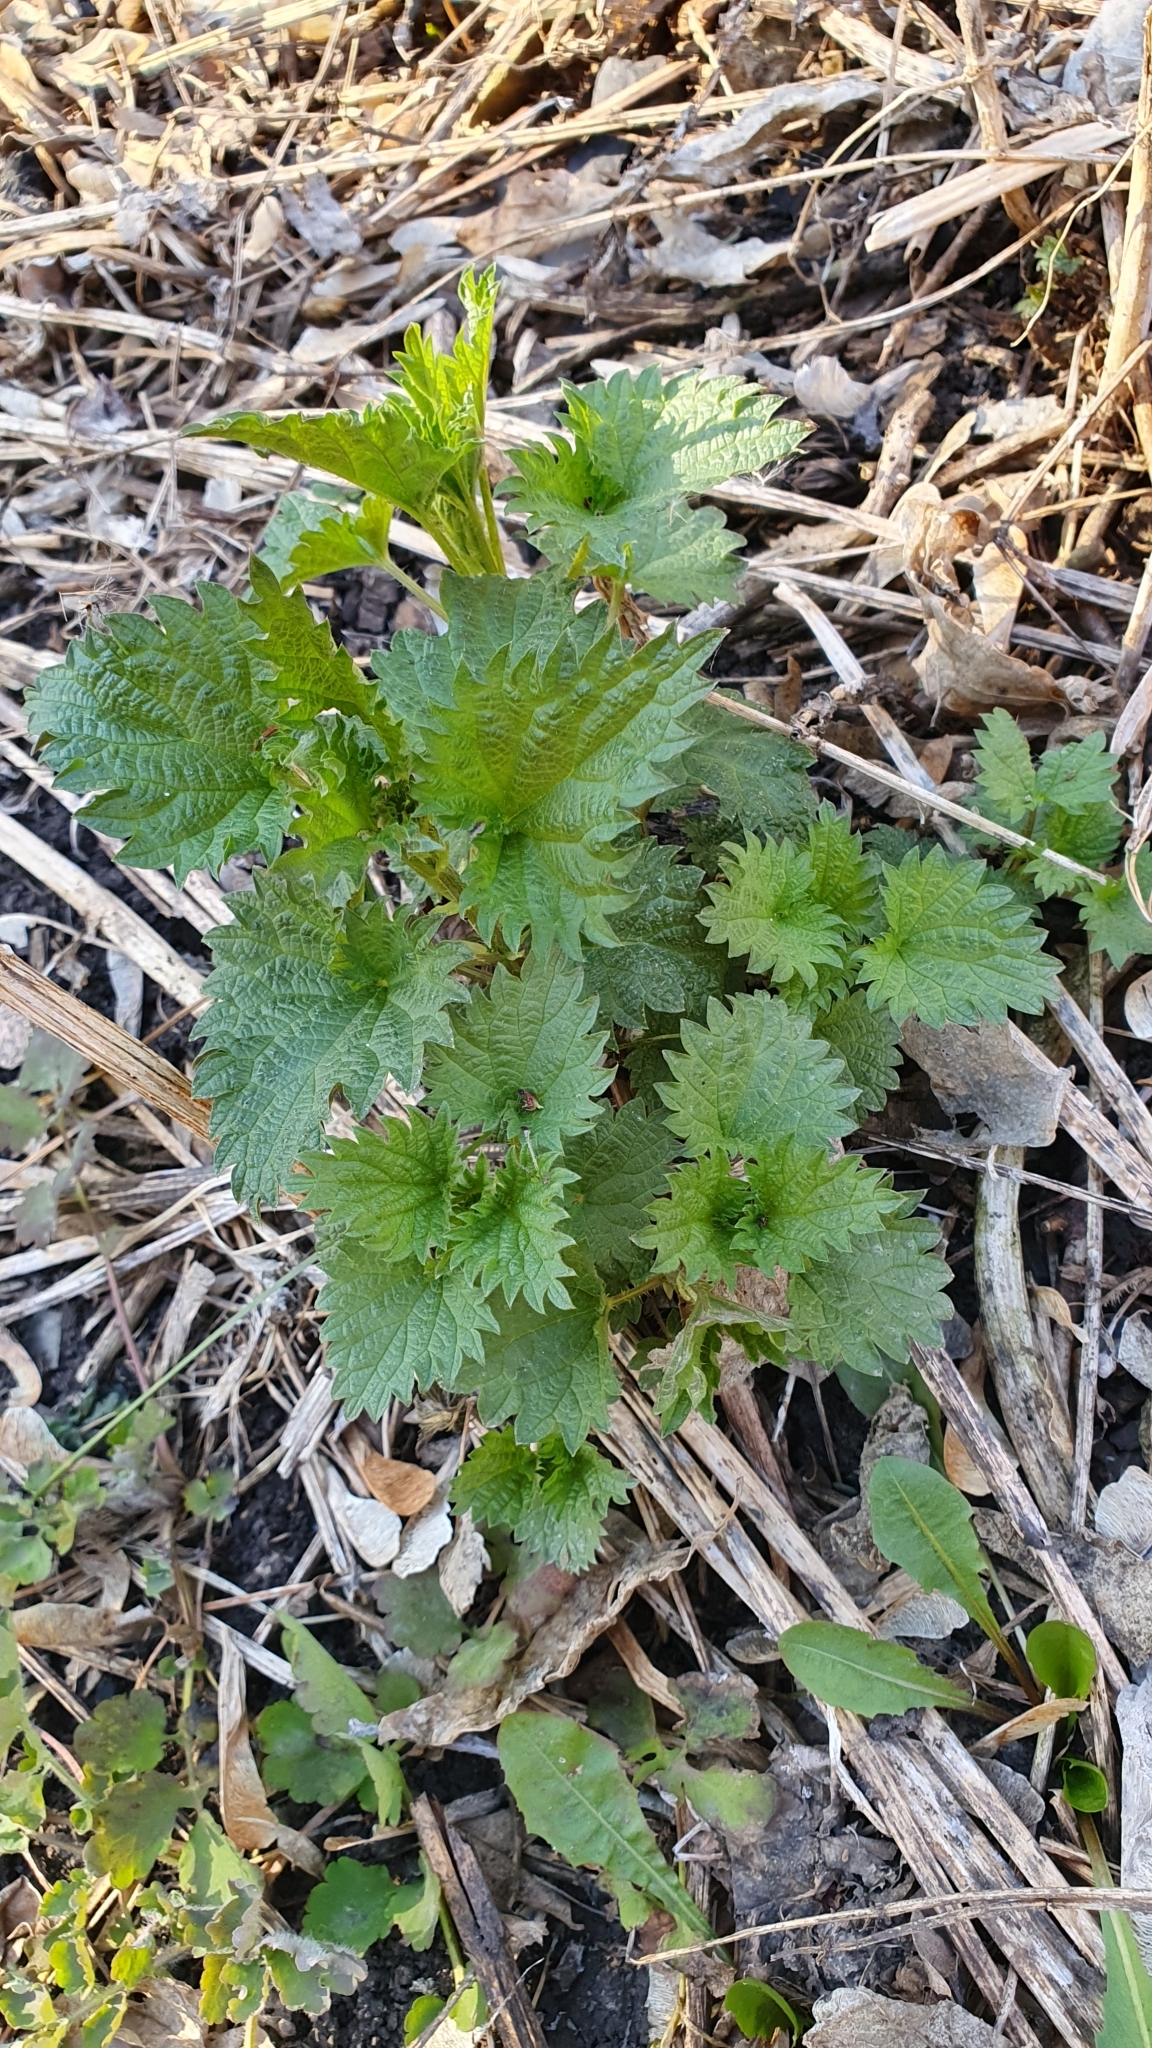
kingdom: Plantae
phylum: Tracheophyta
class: Magnoliopsida
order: Rosales
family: Urticaceae
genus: Urtica
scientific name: Urtica dioica
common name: Common nettle
